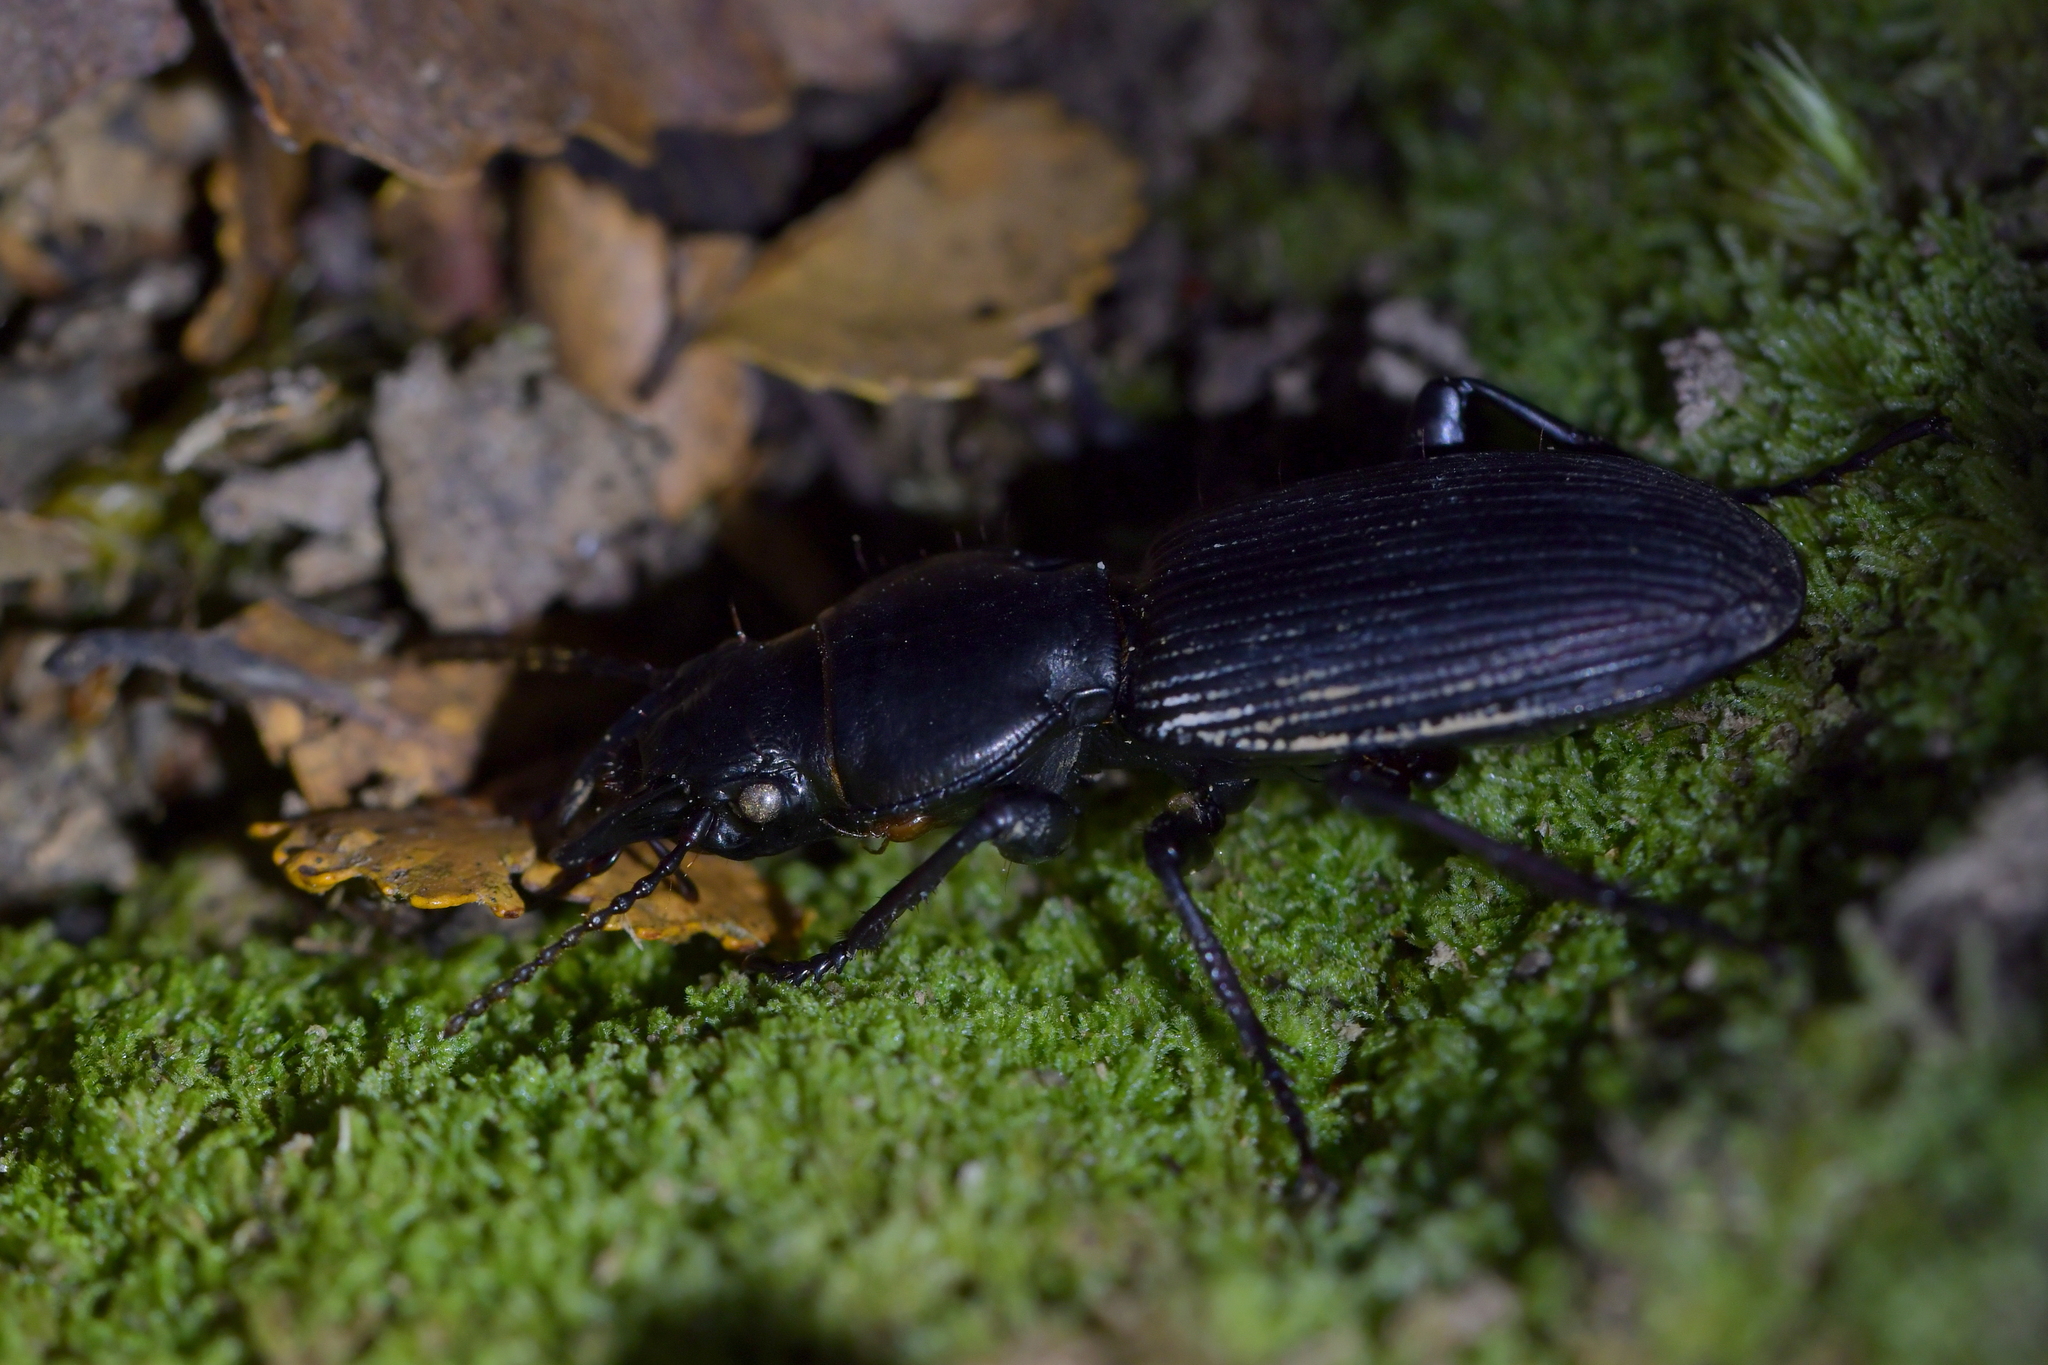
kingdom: Animalia
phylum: Arthropoda
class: Insecta
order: Coleoptera
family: Carabidae
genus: Mecodema
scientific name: Mecodema hector
